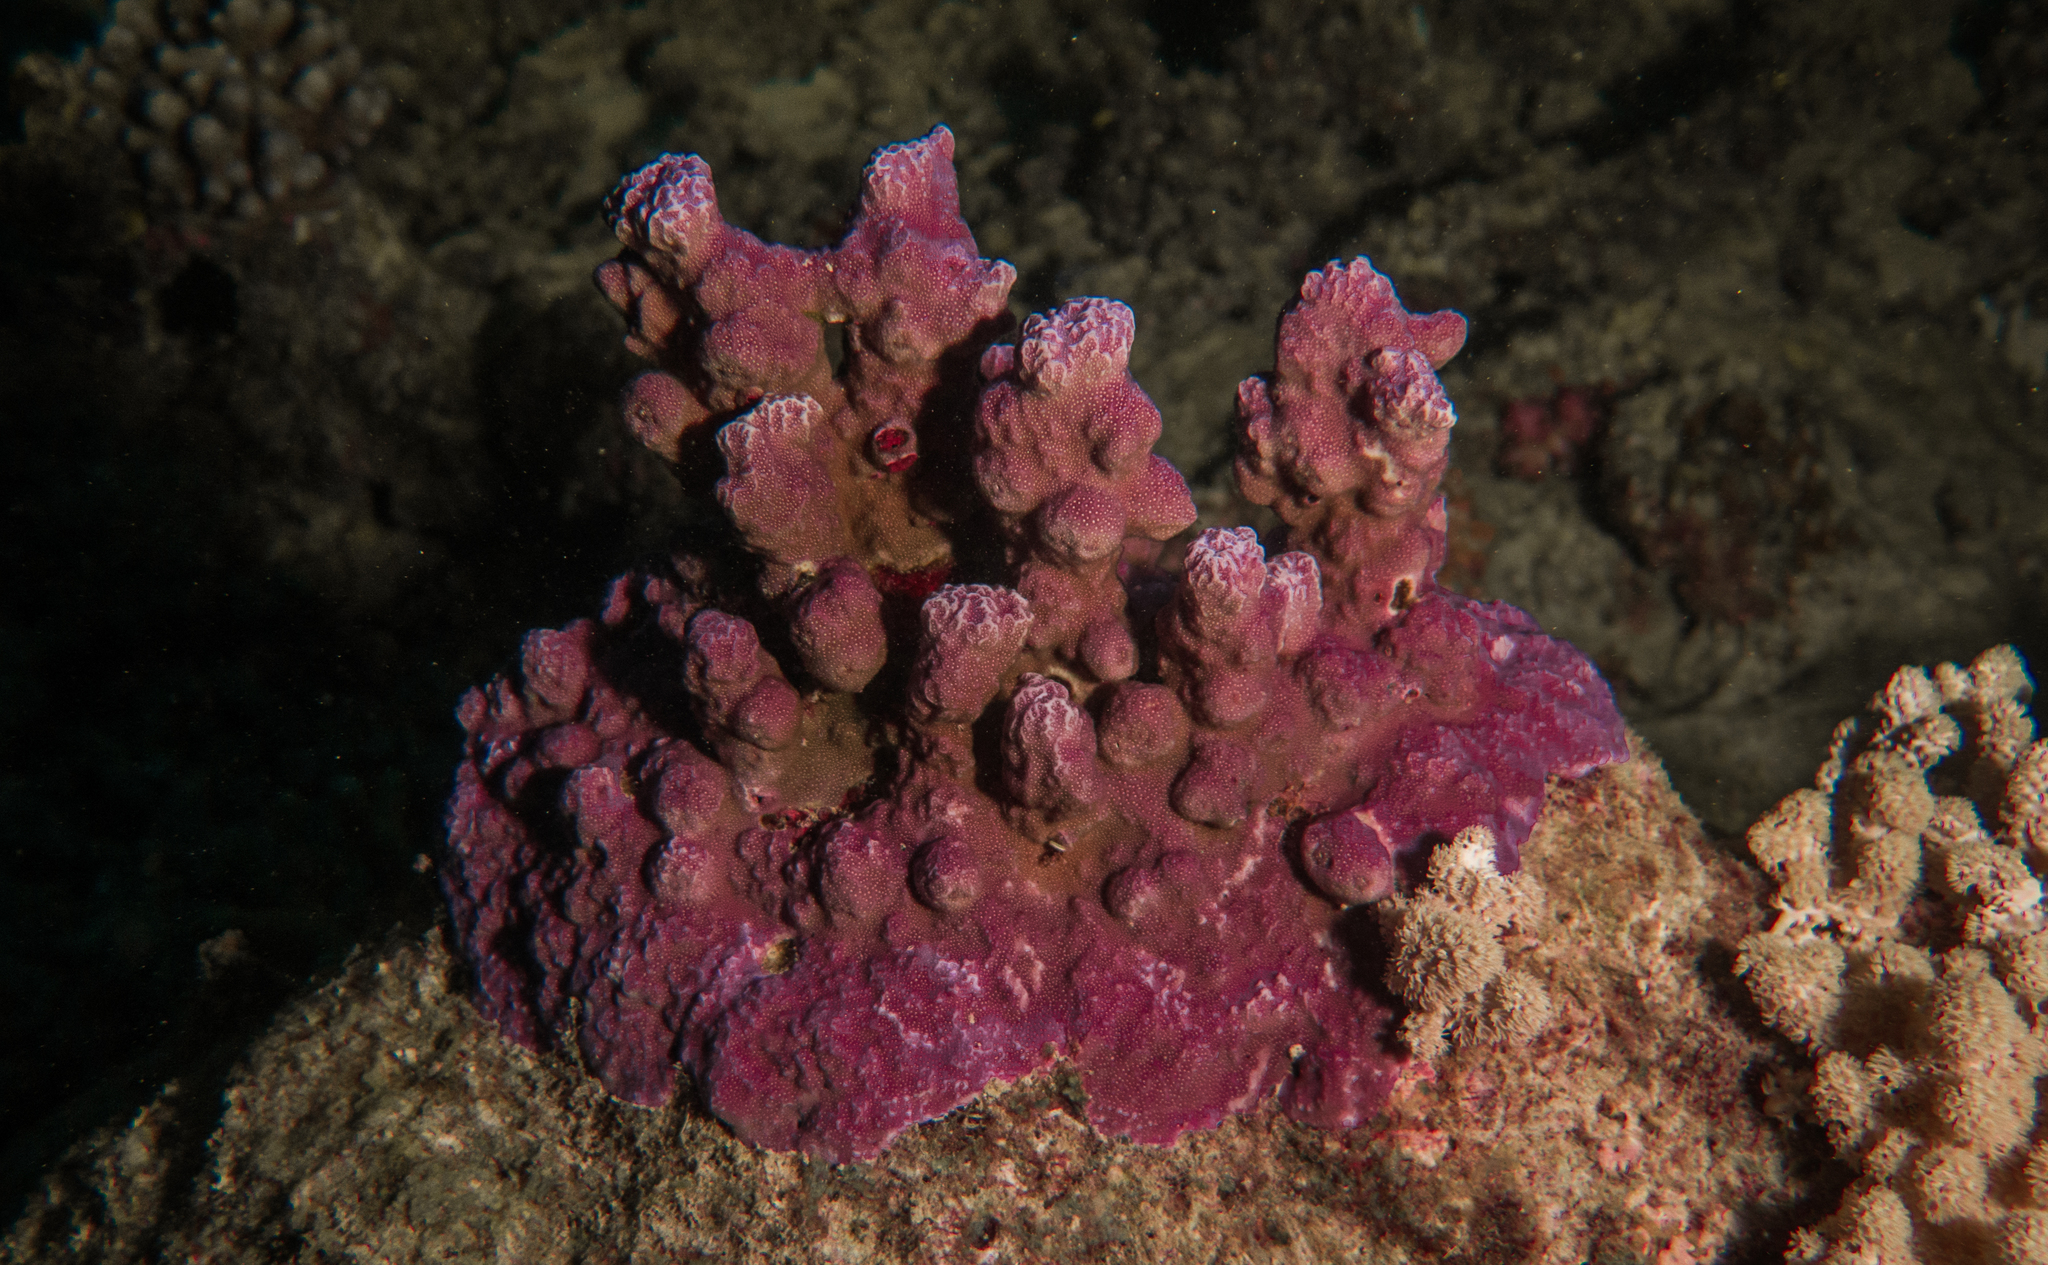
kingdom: Animalia
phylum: Cnidaria
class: Anthozoa
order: Scleractinia
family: Poritidae
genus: Porites
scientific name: Porites rus
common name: Hump coral
